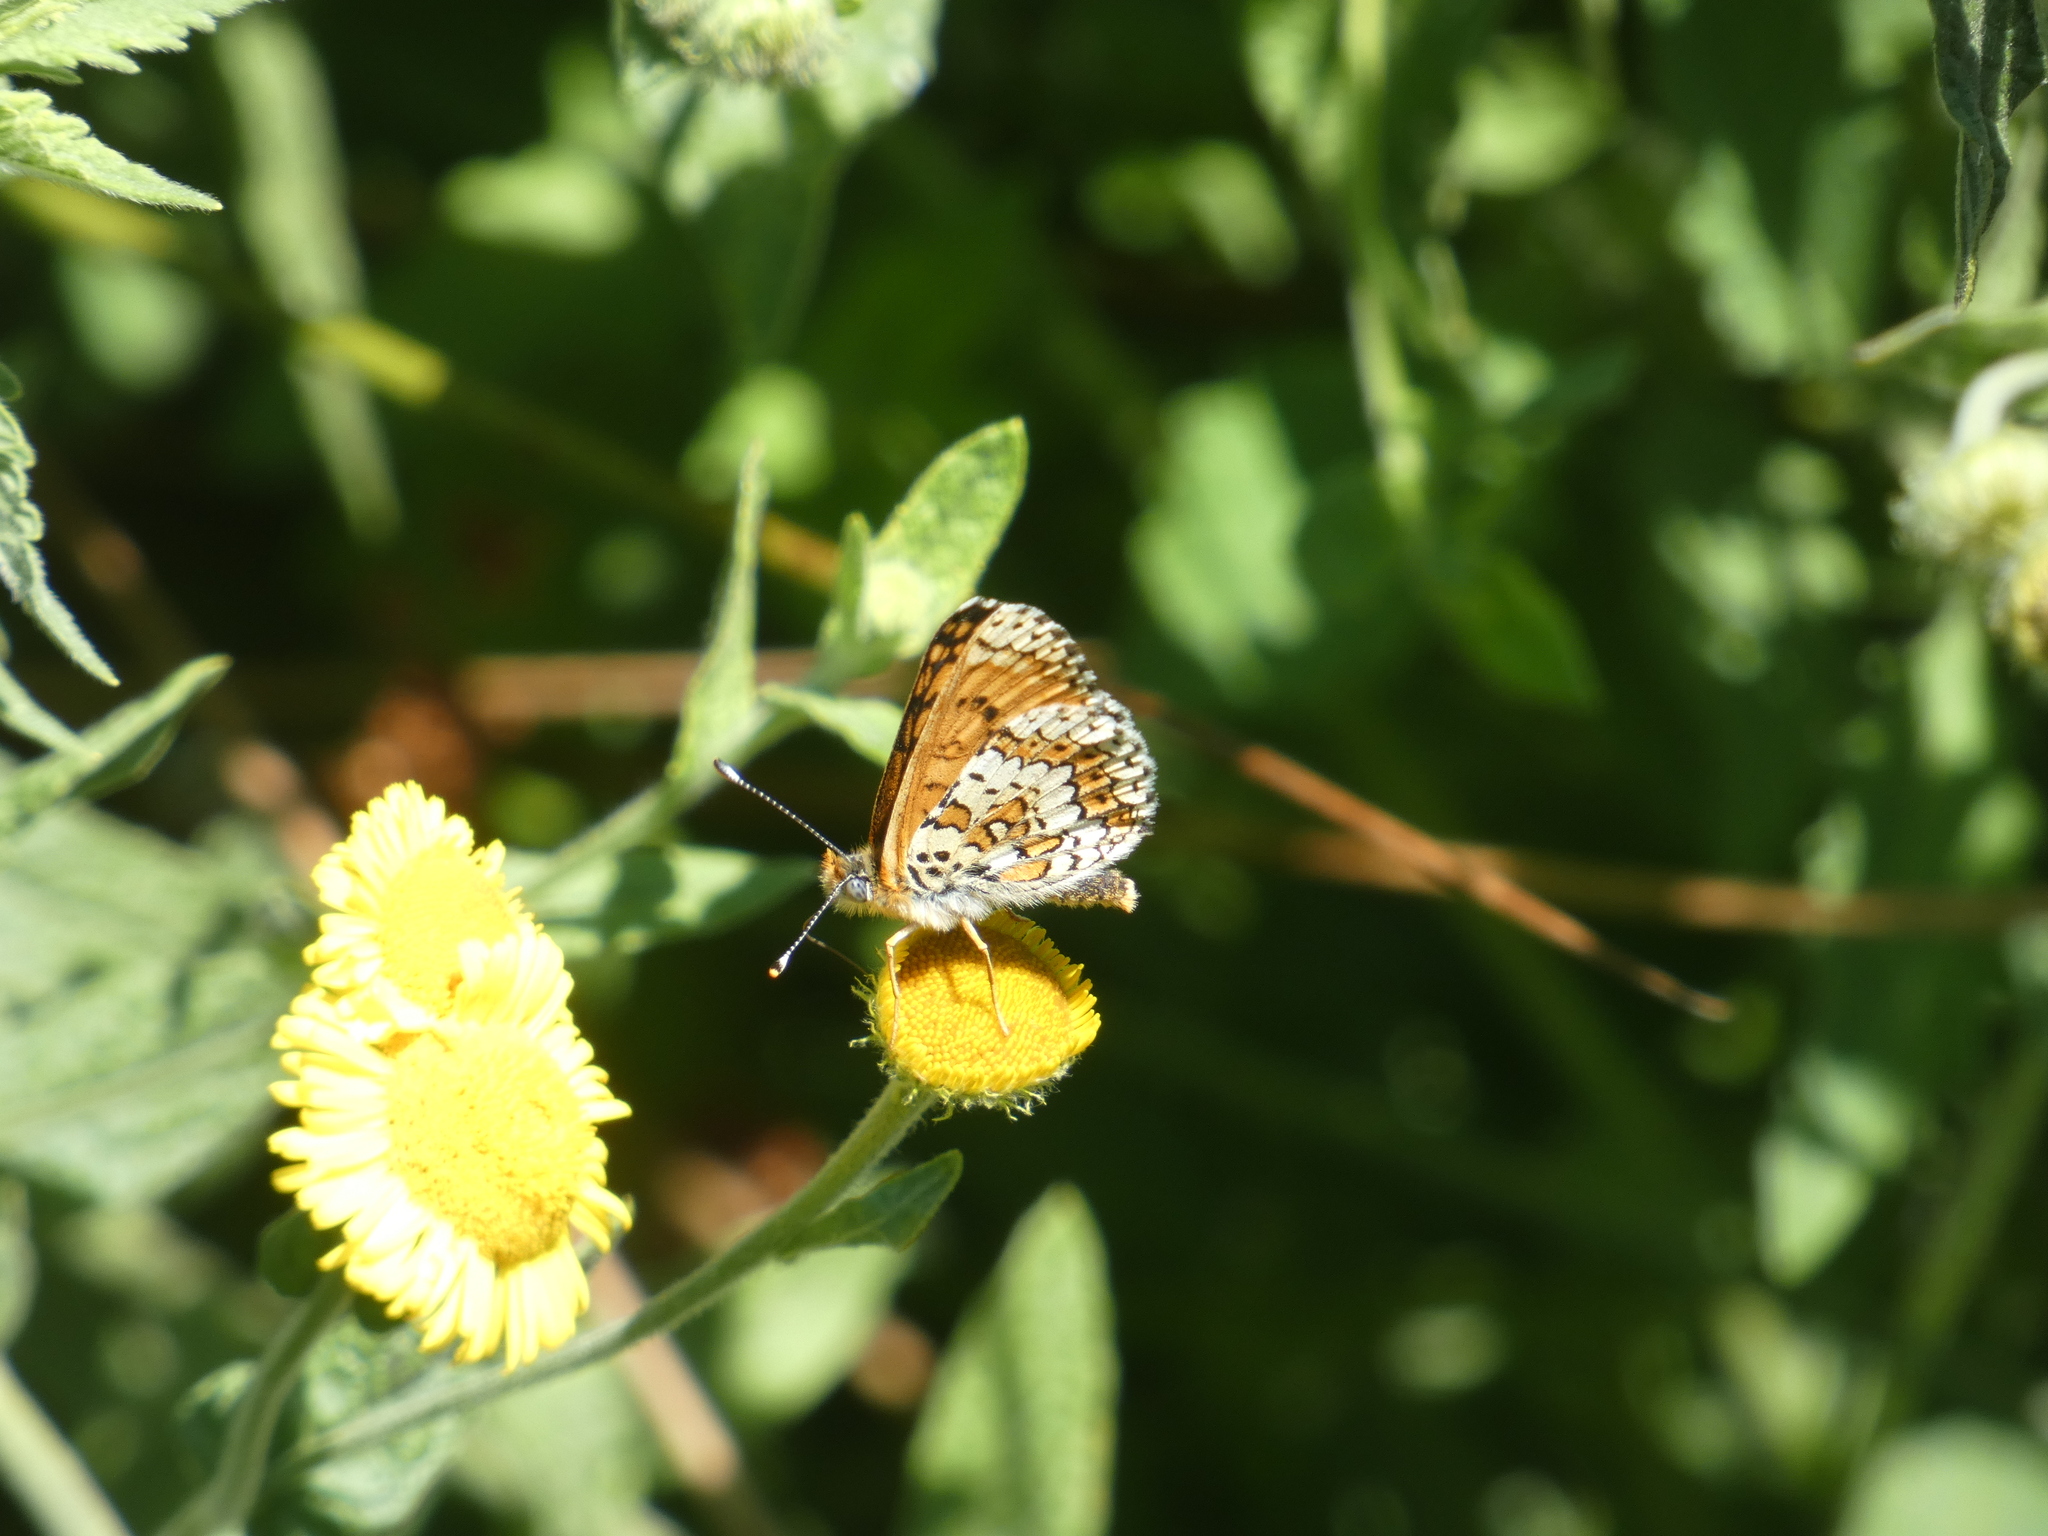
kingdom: Animalia
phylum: Arthropoda
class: Insecta
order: Lepidoptera
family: Nymphalidae
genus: Melitaea
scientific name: Melitaea cinxia
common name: Glanville fritillary
